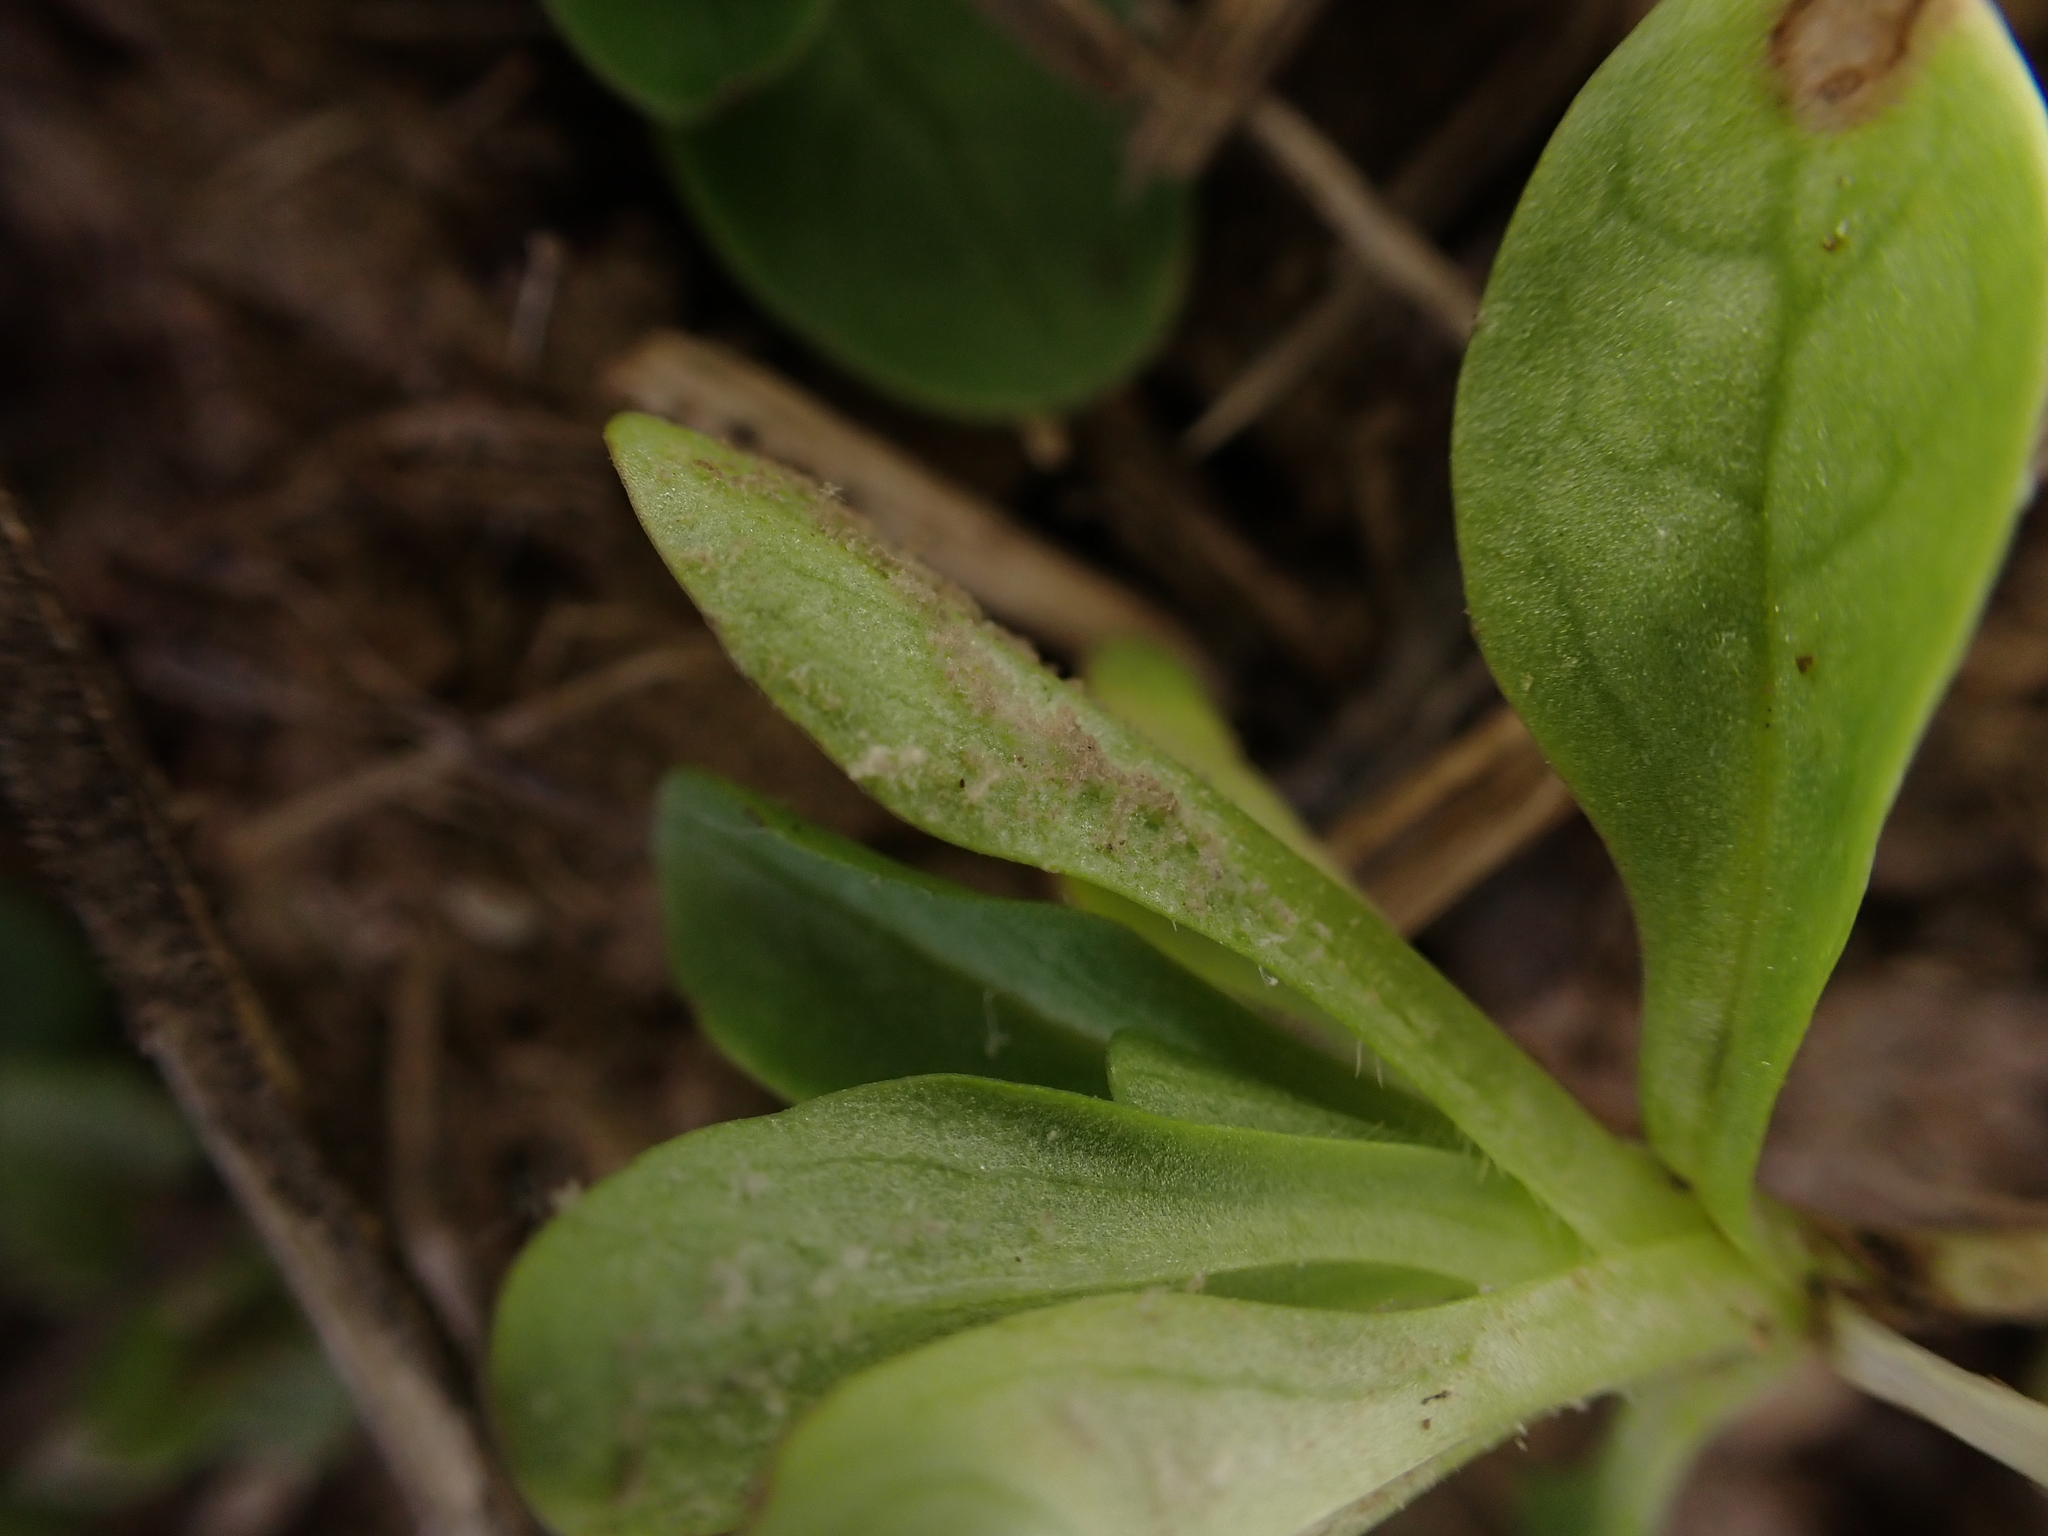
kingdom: Chromista
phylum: Oomycota
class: Peronosporea
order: Peronosporales
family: Peronosporaceae
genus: Peronospora
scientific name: Peronospora valerianellae
